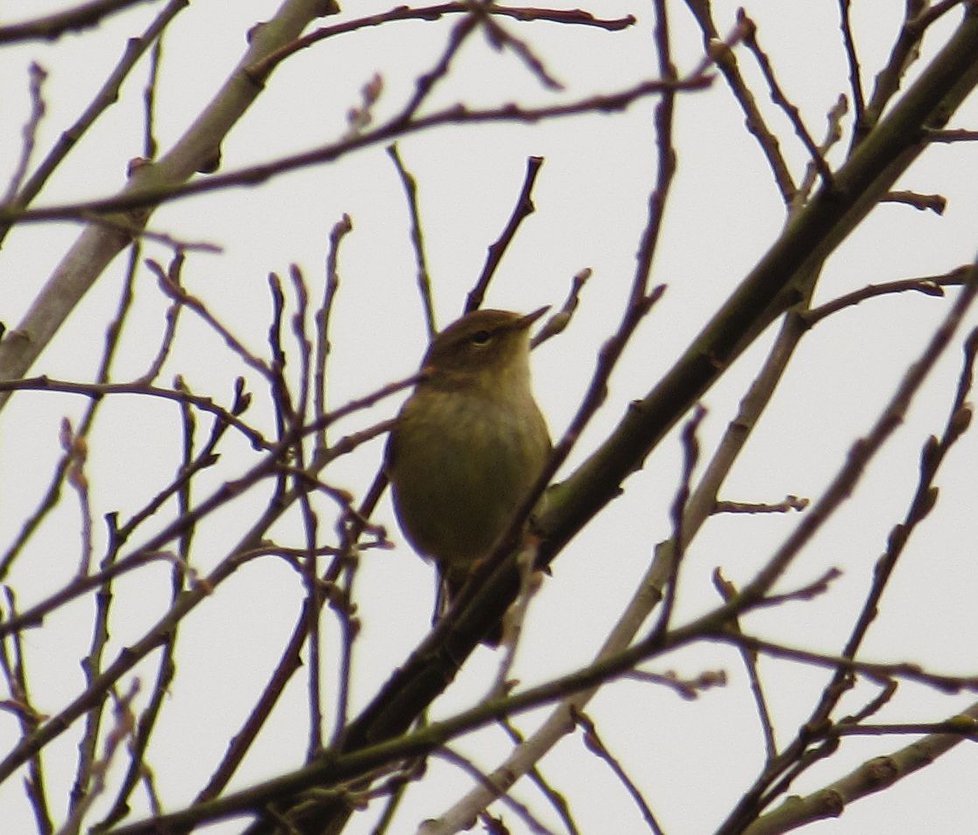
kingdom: Animalia
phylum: Chordata
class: Aves
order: Passeriformes
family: Phylloscopidae
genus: Phylloscopus
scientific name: Phylloscopus collybita
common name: Common chiffchaff
